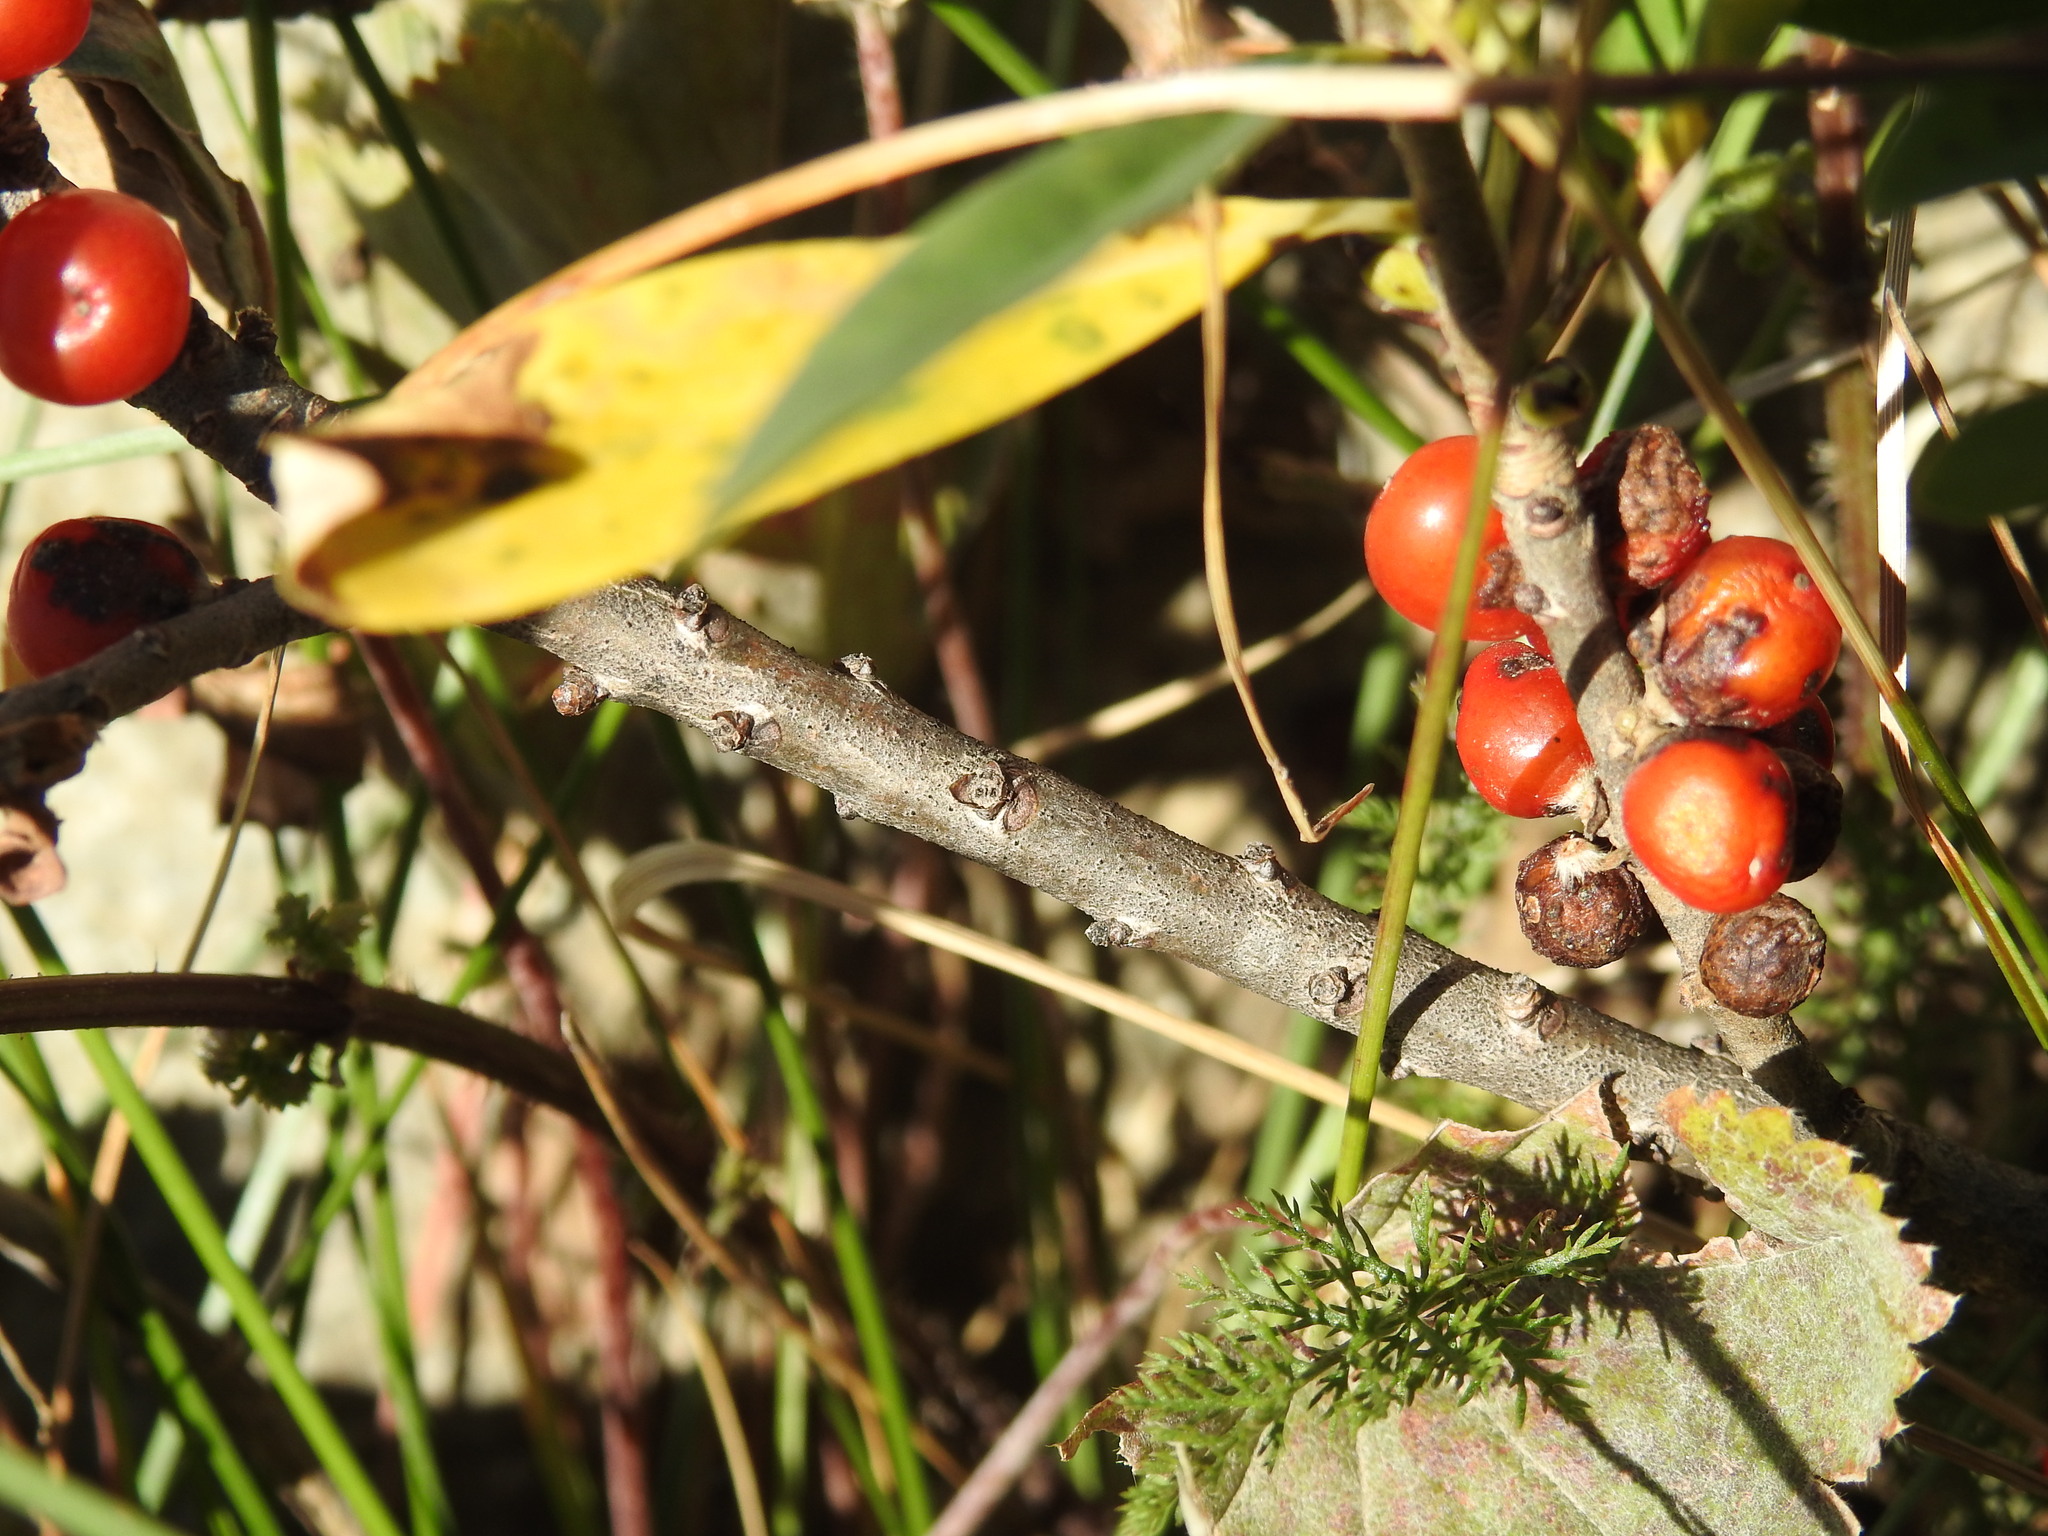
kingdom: Plantae
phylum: Tracheophyta
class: Magnoliopsida
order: Malvales
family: Thymelaeaceae
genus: Daphne
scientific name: Daphne mezereum
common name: Mezereon
